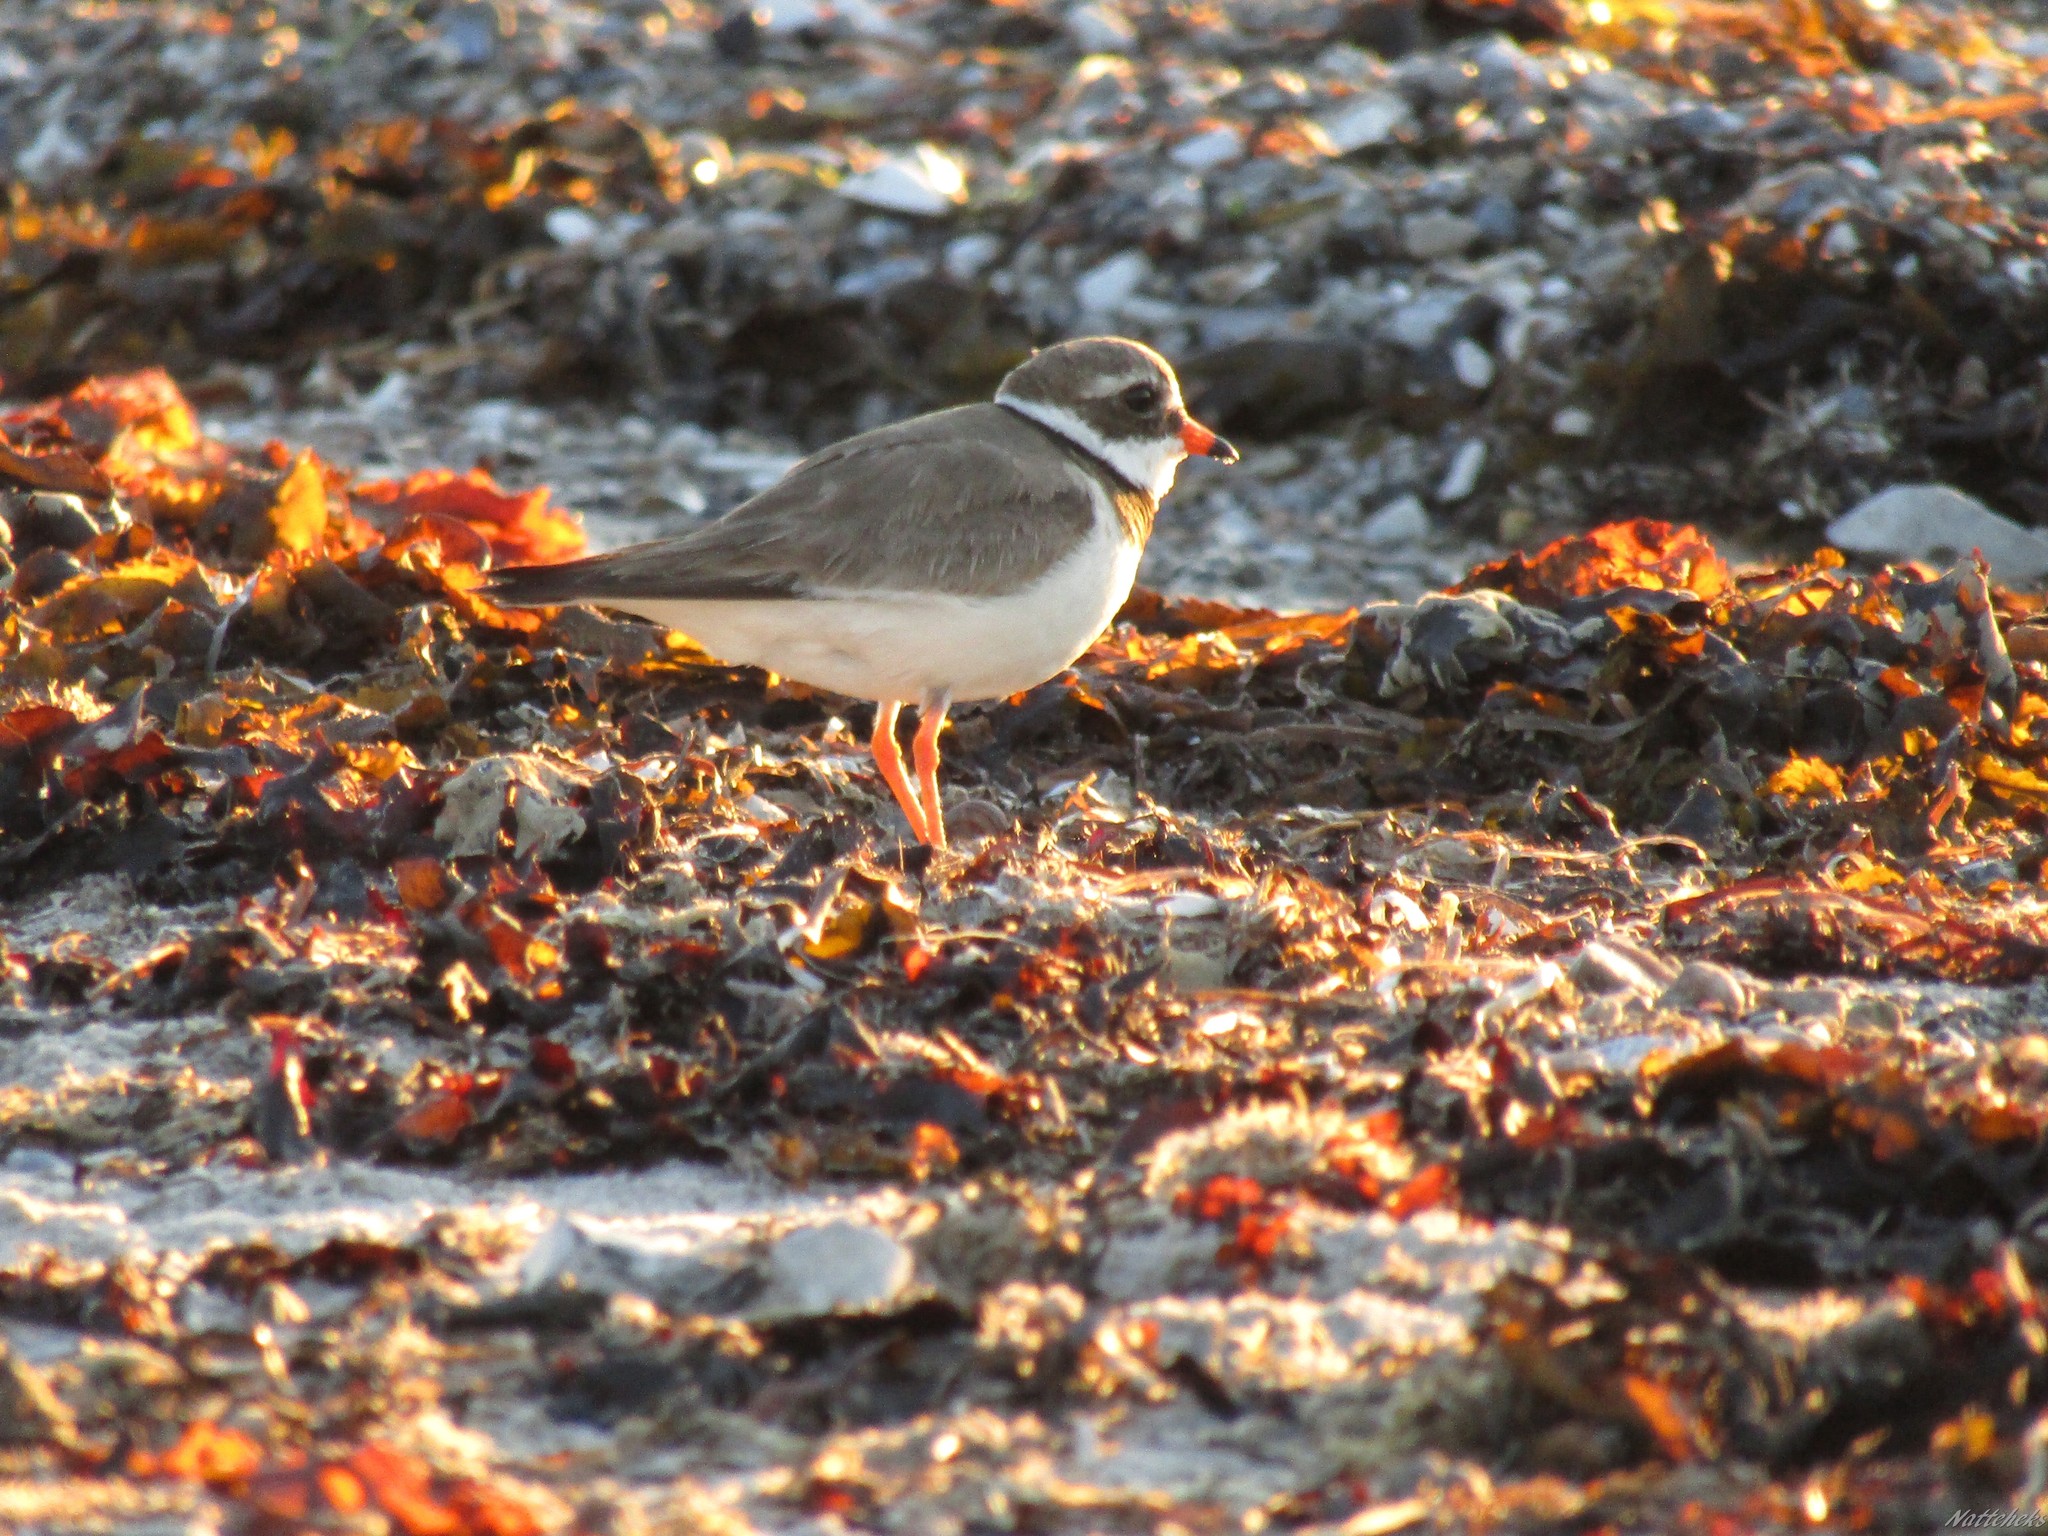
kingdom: Animalia
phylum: Chordata
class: Aves
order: Charadriiformes
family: Charadriidae
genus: Charadrius
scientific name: Charadrius hiaticula
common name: Common ringed plover
